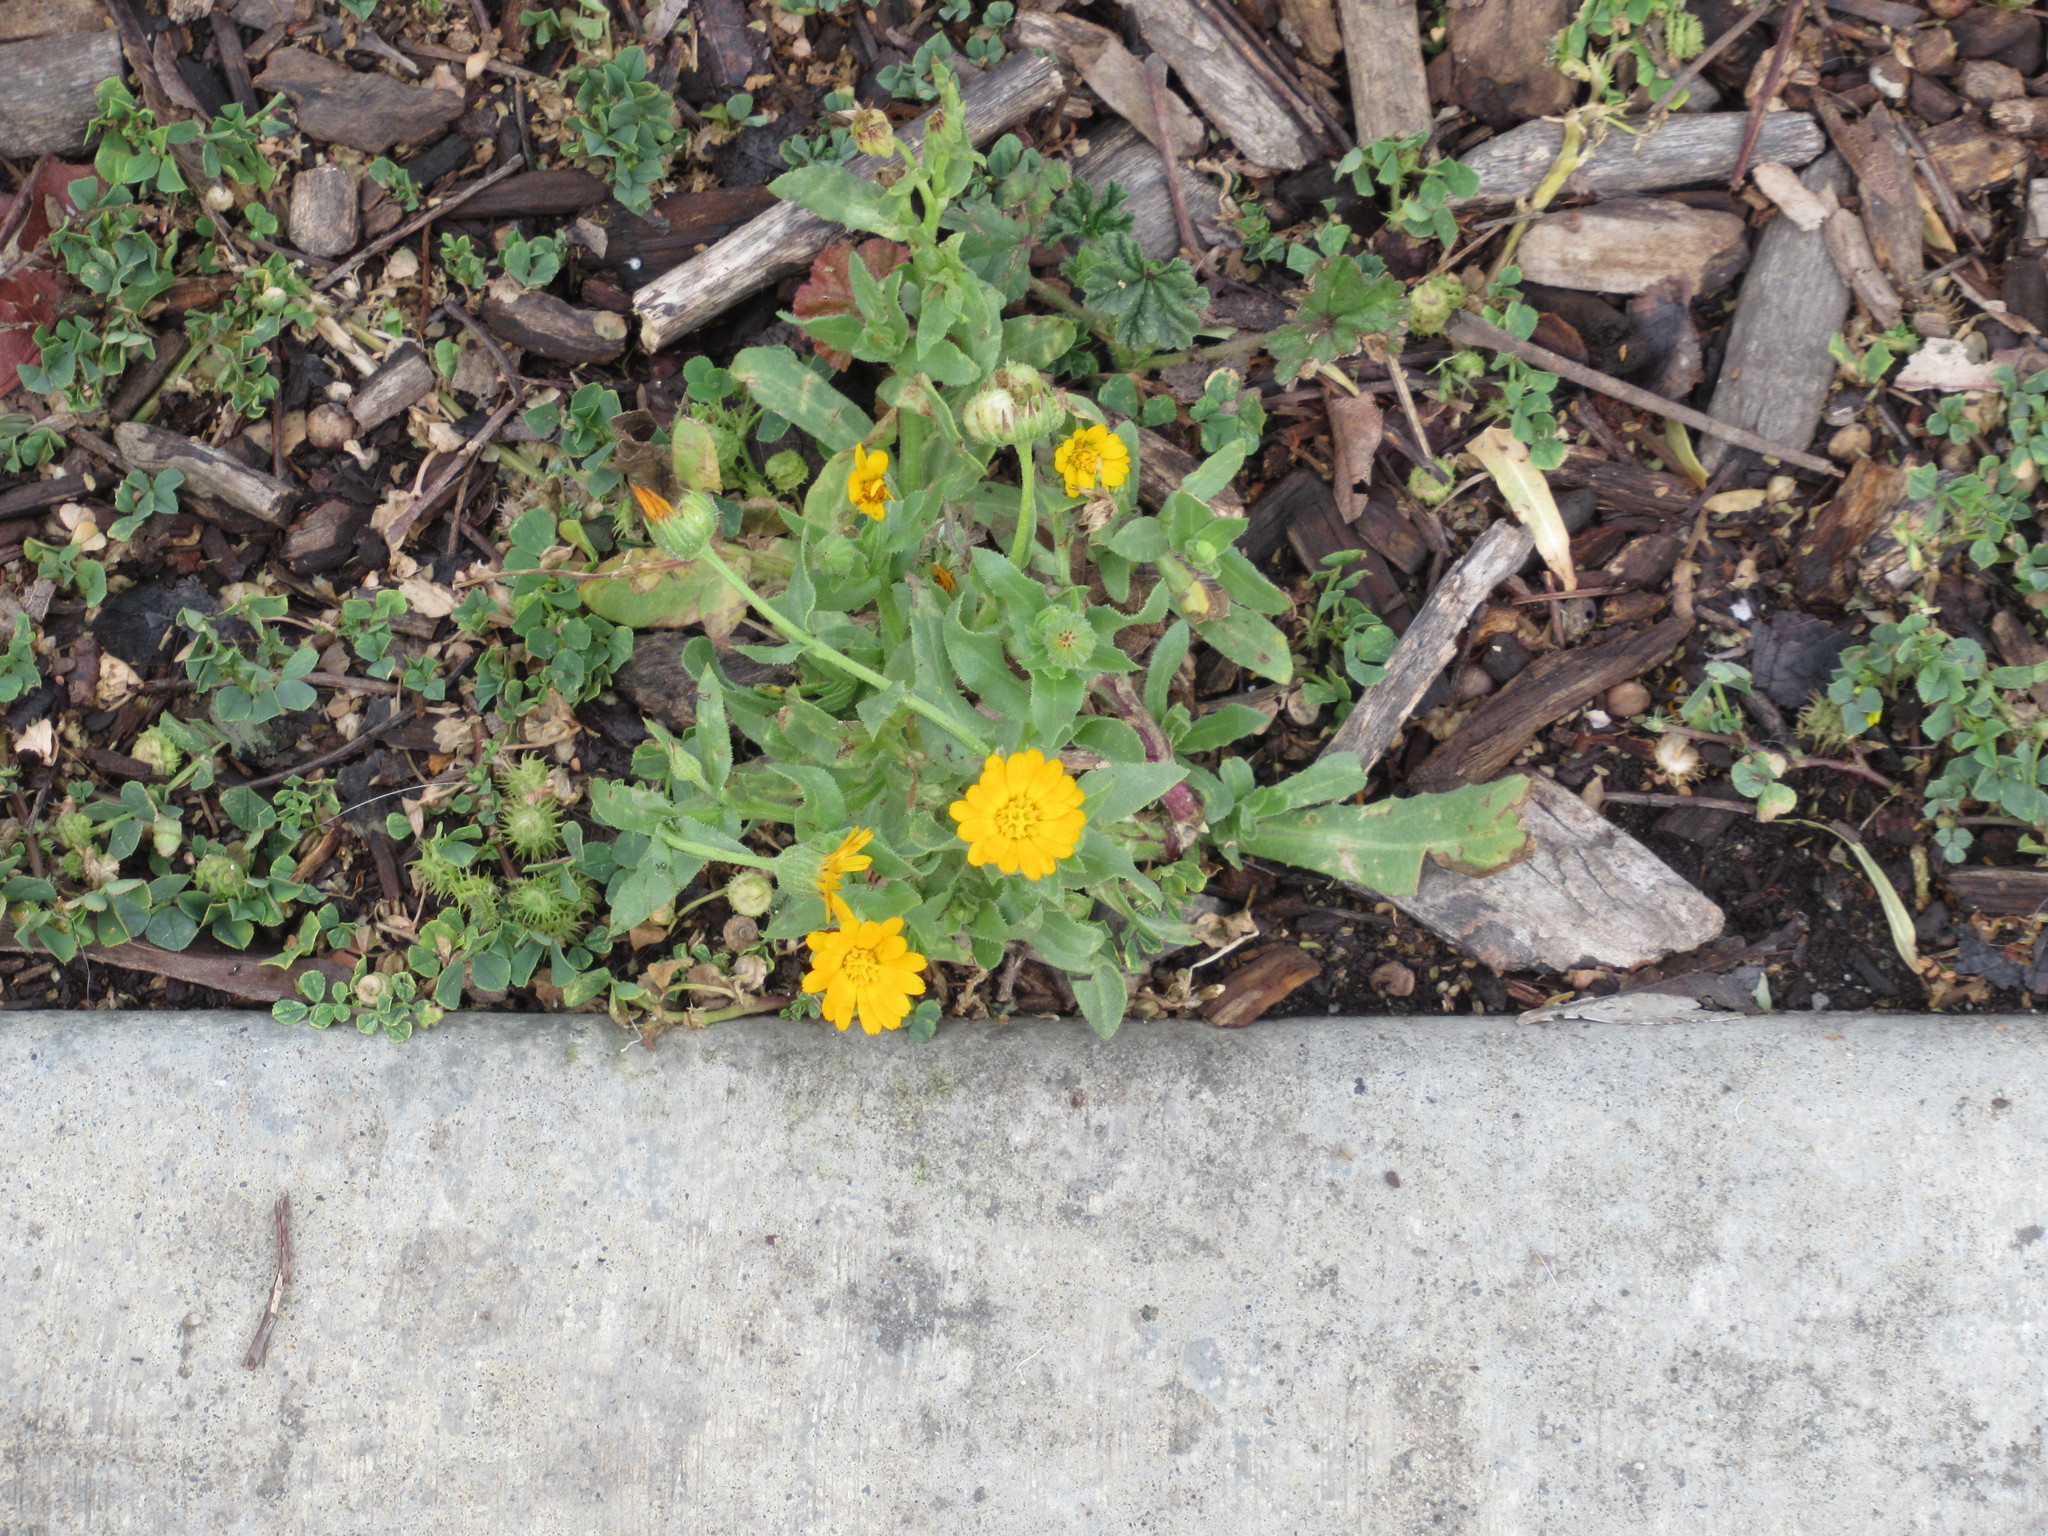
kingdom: Plantae
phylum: Tracheophyta
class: Magnoliopsida
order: Asterales
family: Asteraceae
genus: Calendula
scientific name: Calendula arvensis
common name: Field marigold
